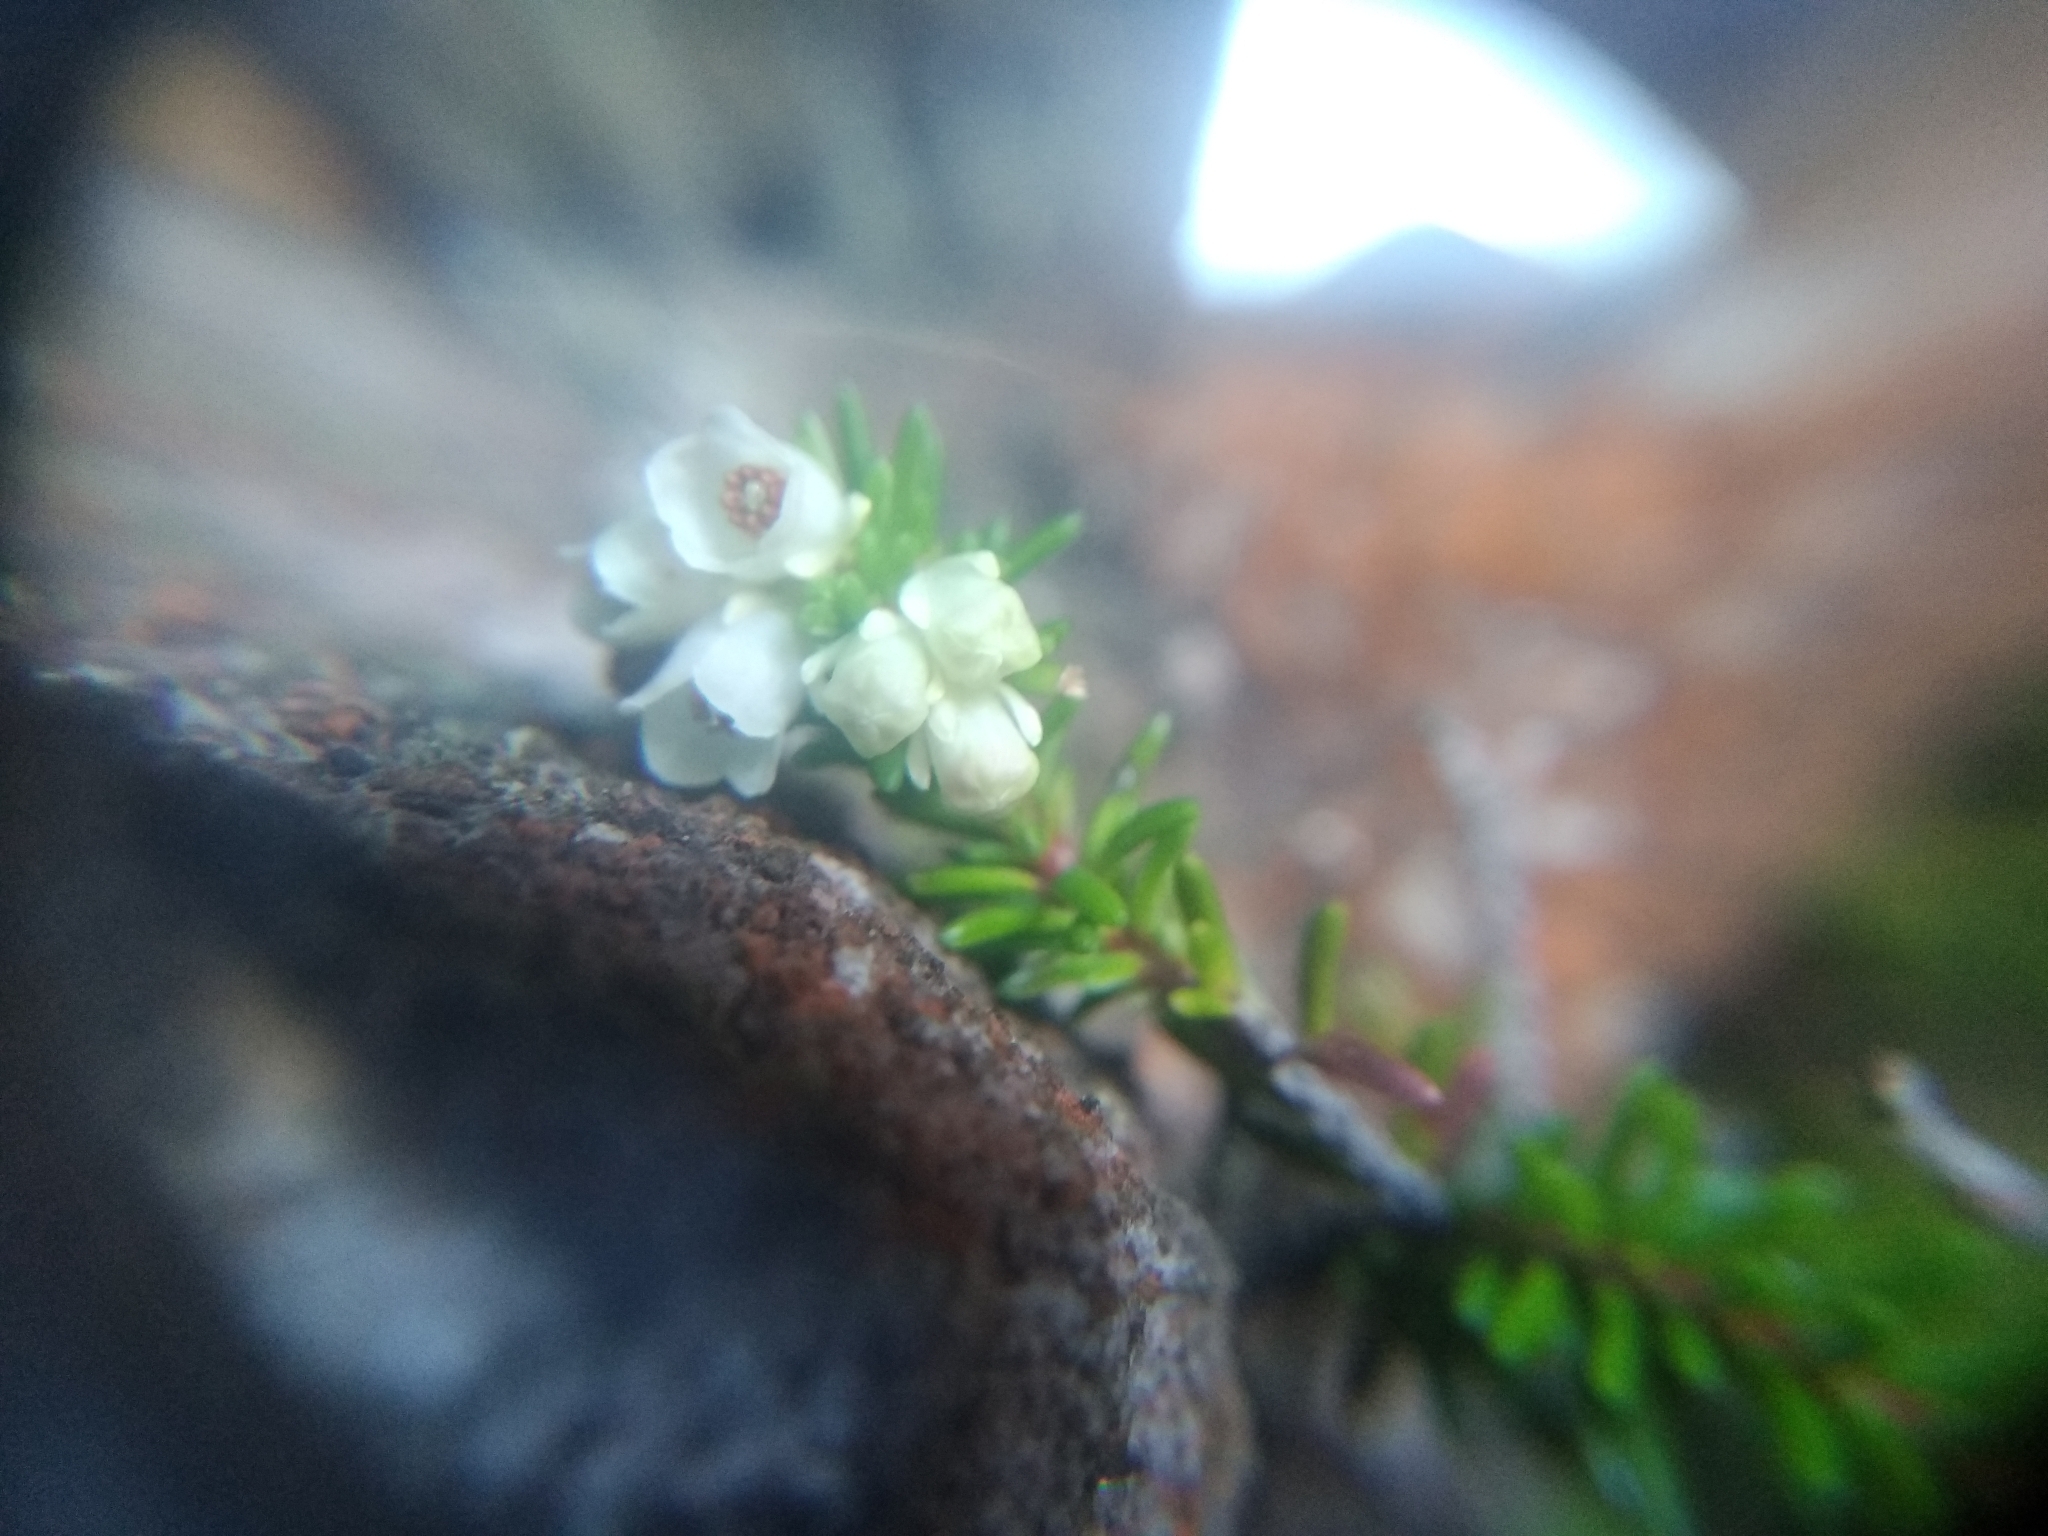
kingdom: Plantae
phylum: Tracheophyta
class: Magnoliopsida
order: Ericales
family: Ericaceae
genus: Erica
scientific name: Erica depressa
